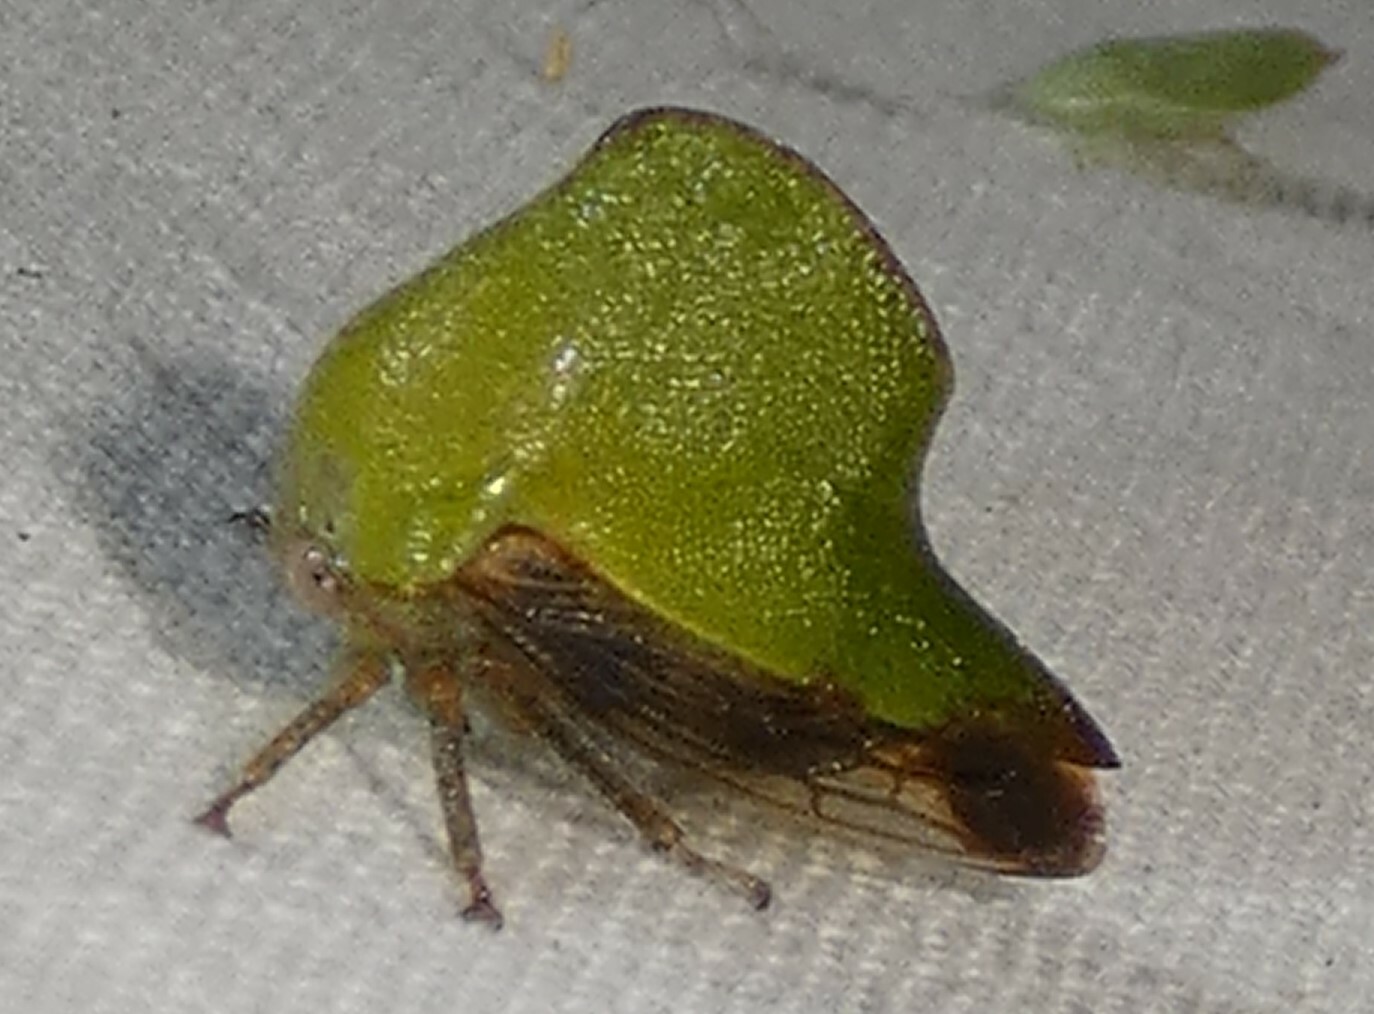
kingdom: Animalia
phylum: Arthropoda
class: Insecta
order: Hemiptera
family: Membracidae
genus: Helonica
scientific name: Helonica excelsa
